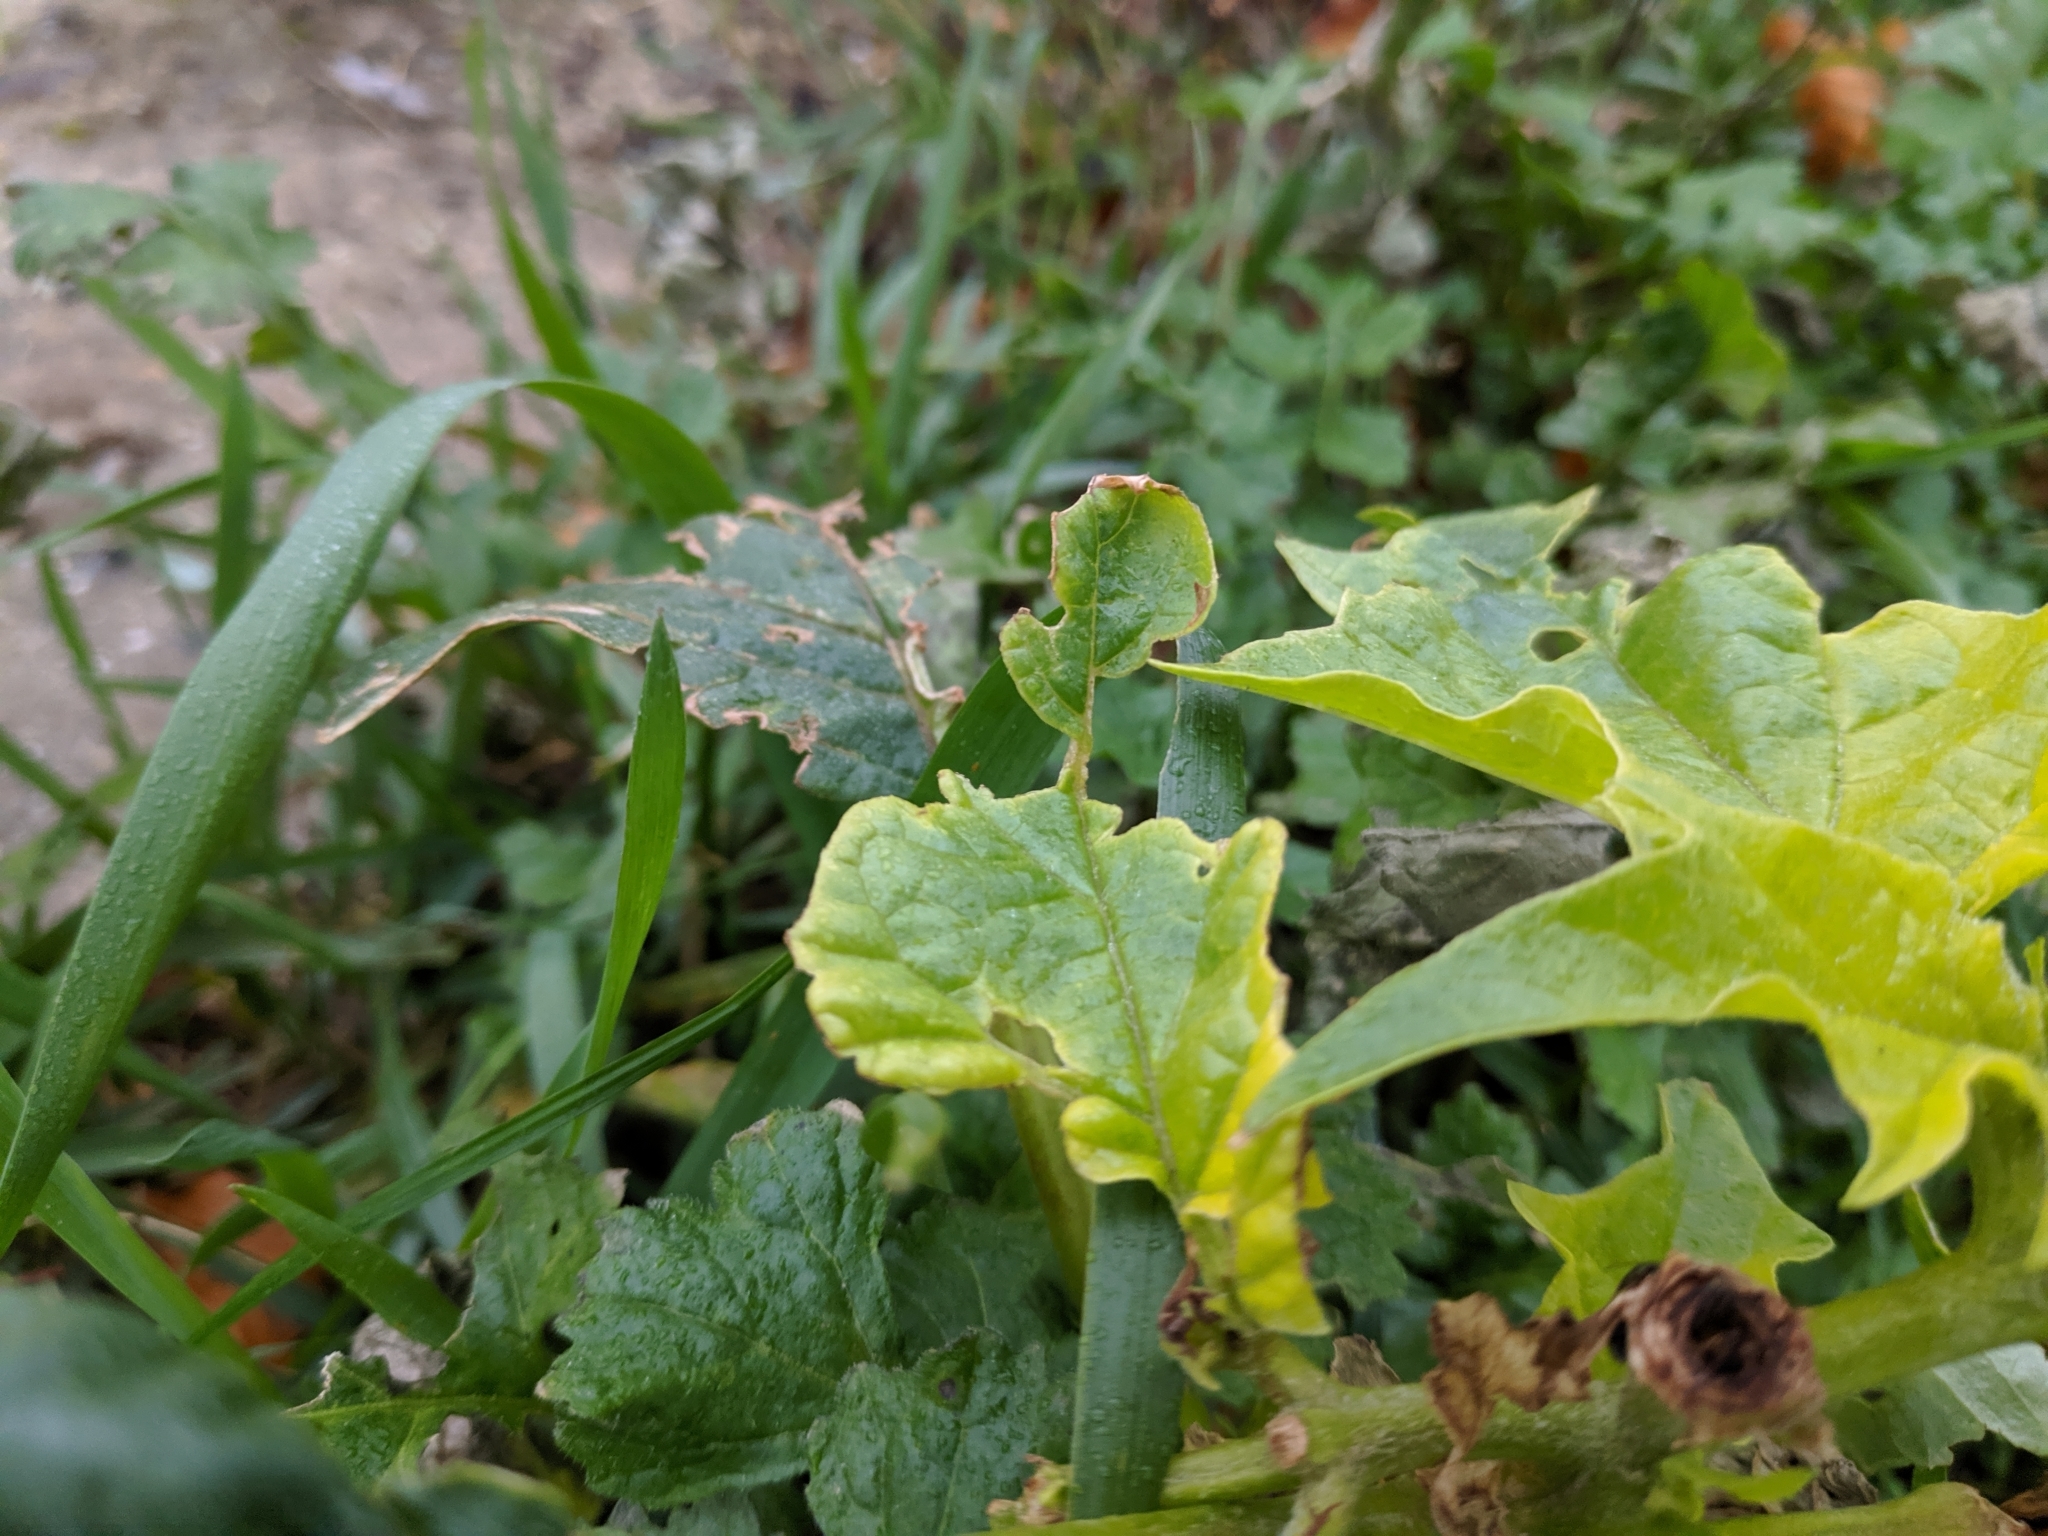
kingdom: Plantae
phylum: Tracheophyta
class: Magnoliopsida
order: Solanales
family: Solanaceae
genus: Datura
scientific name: Datura stramonium
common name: Thorn-apple
